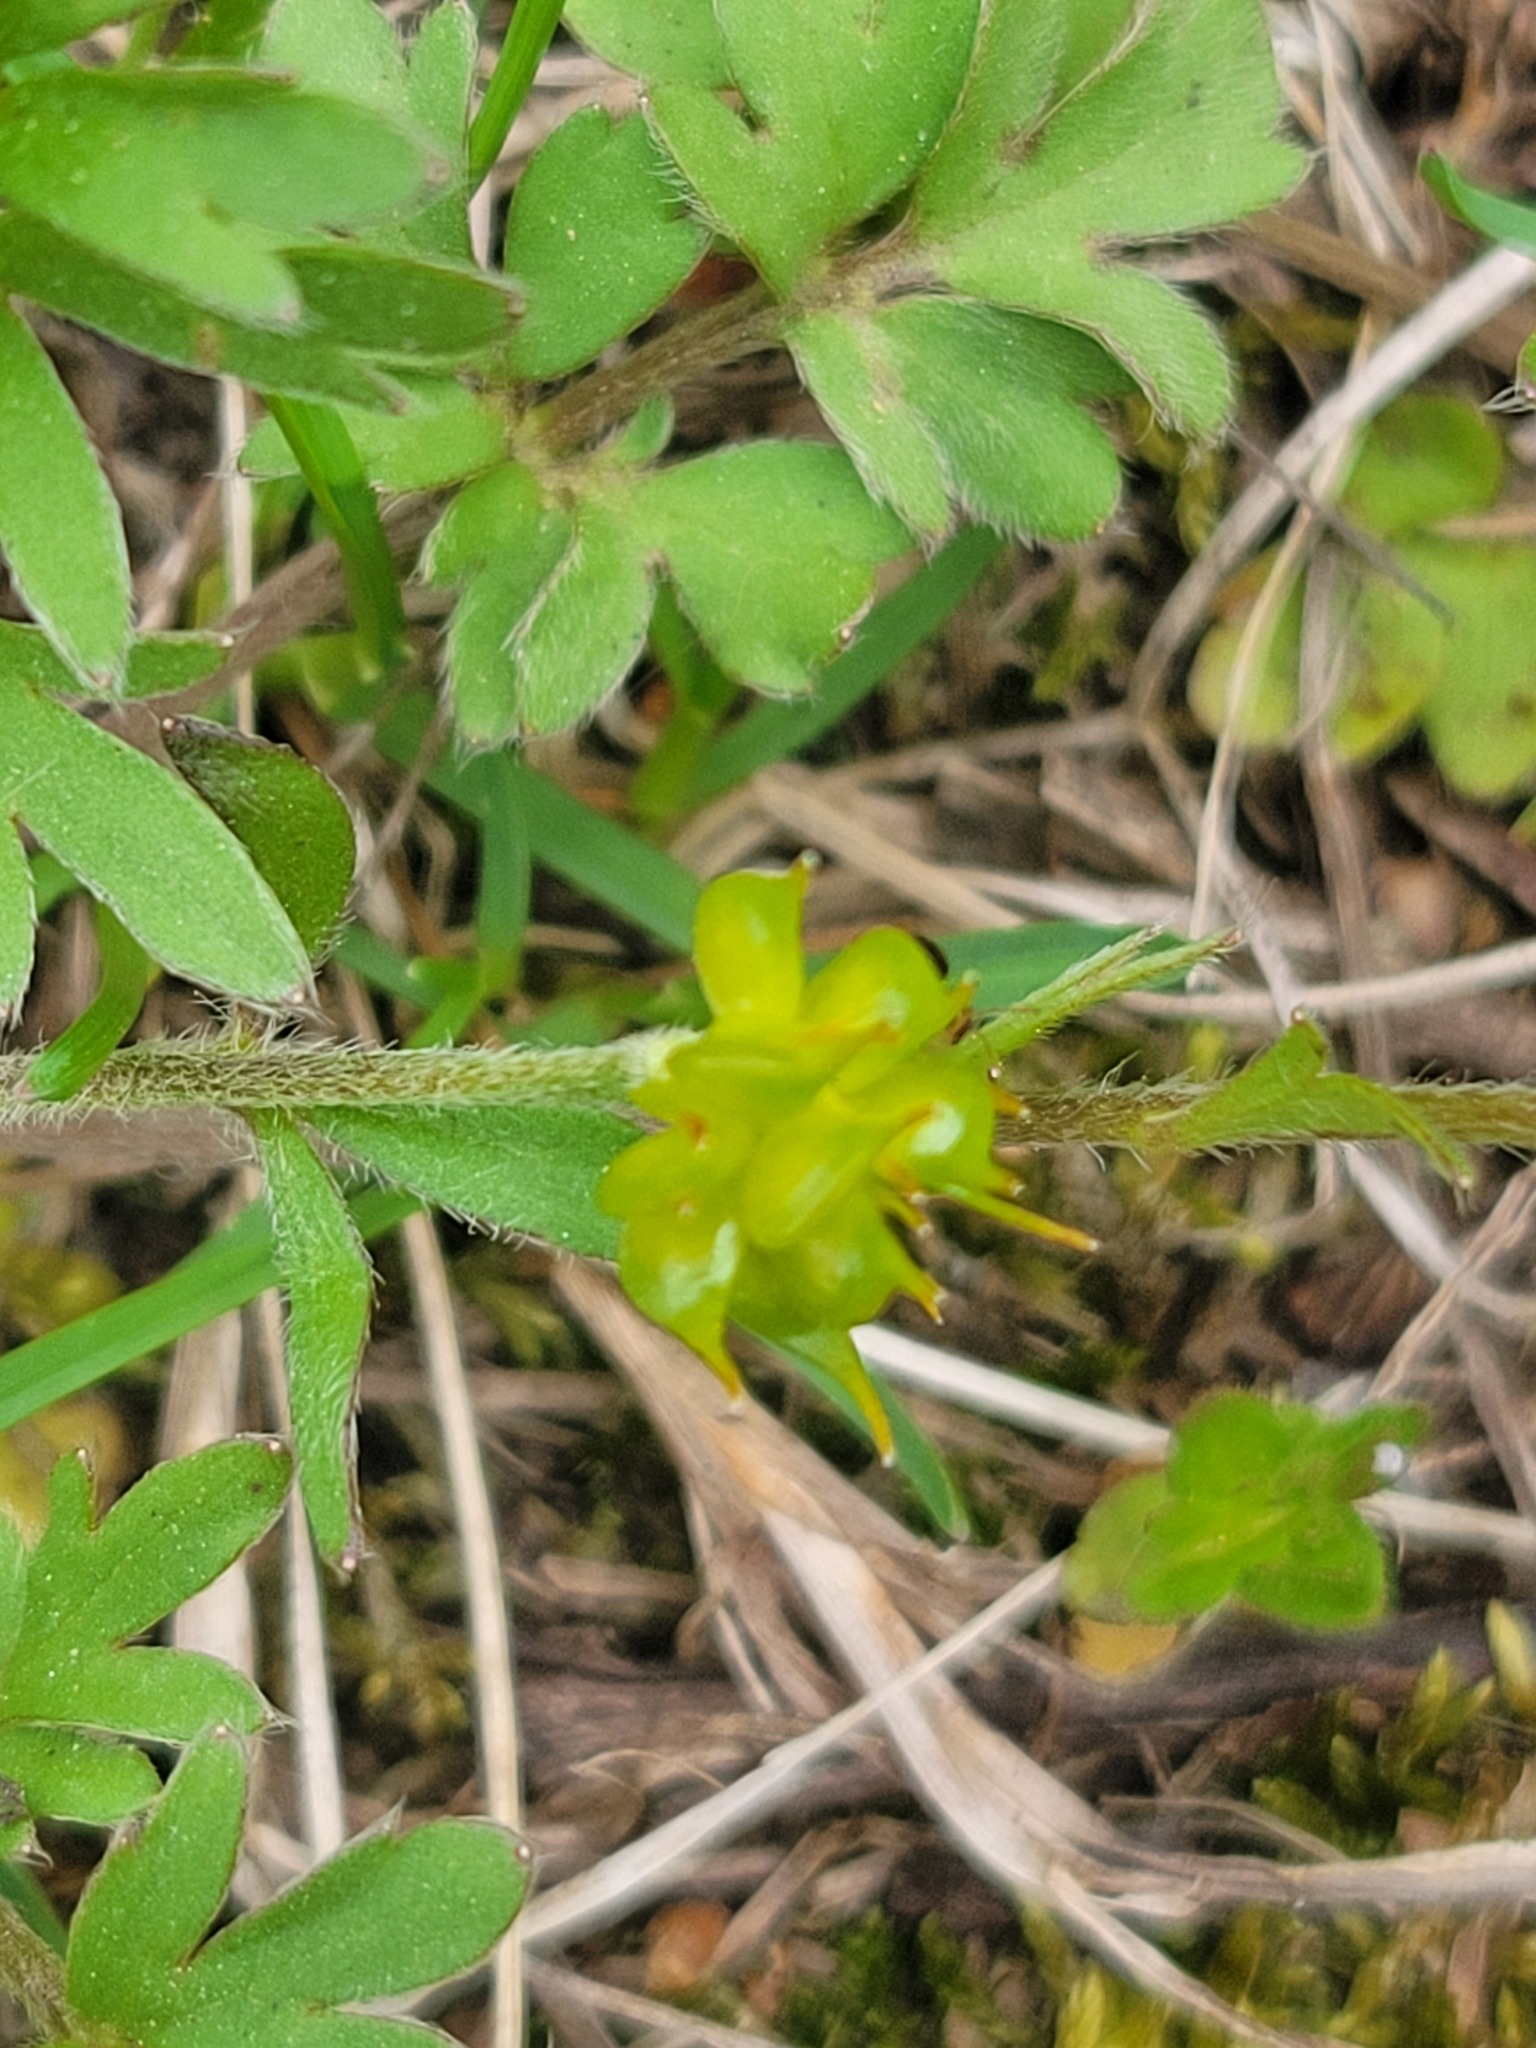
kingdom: Plantae
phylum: Tracheophyta
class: Magnoliopsida
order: Ranunculales
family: Ranunculaceae
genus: Ranunculus
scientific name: Ranunculus fascicularis
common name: Early buttercup
